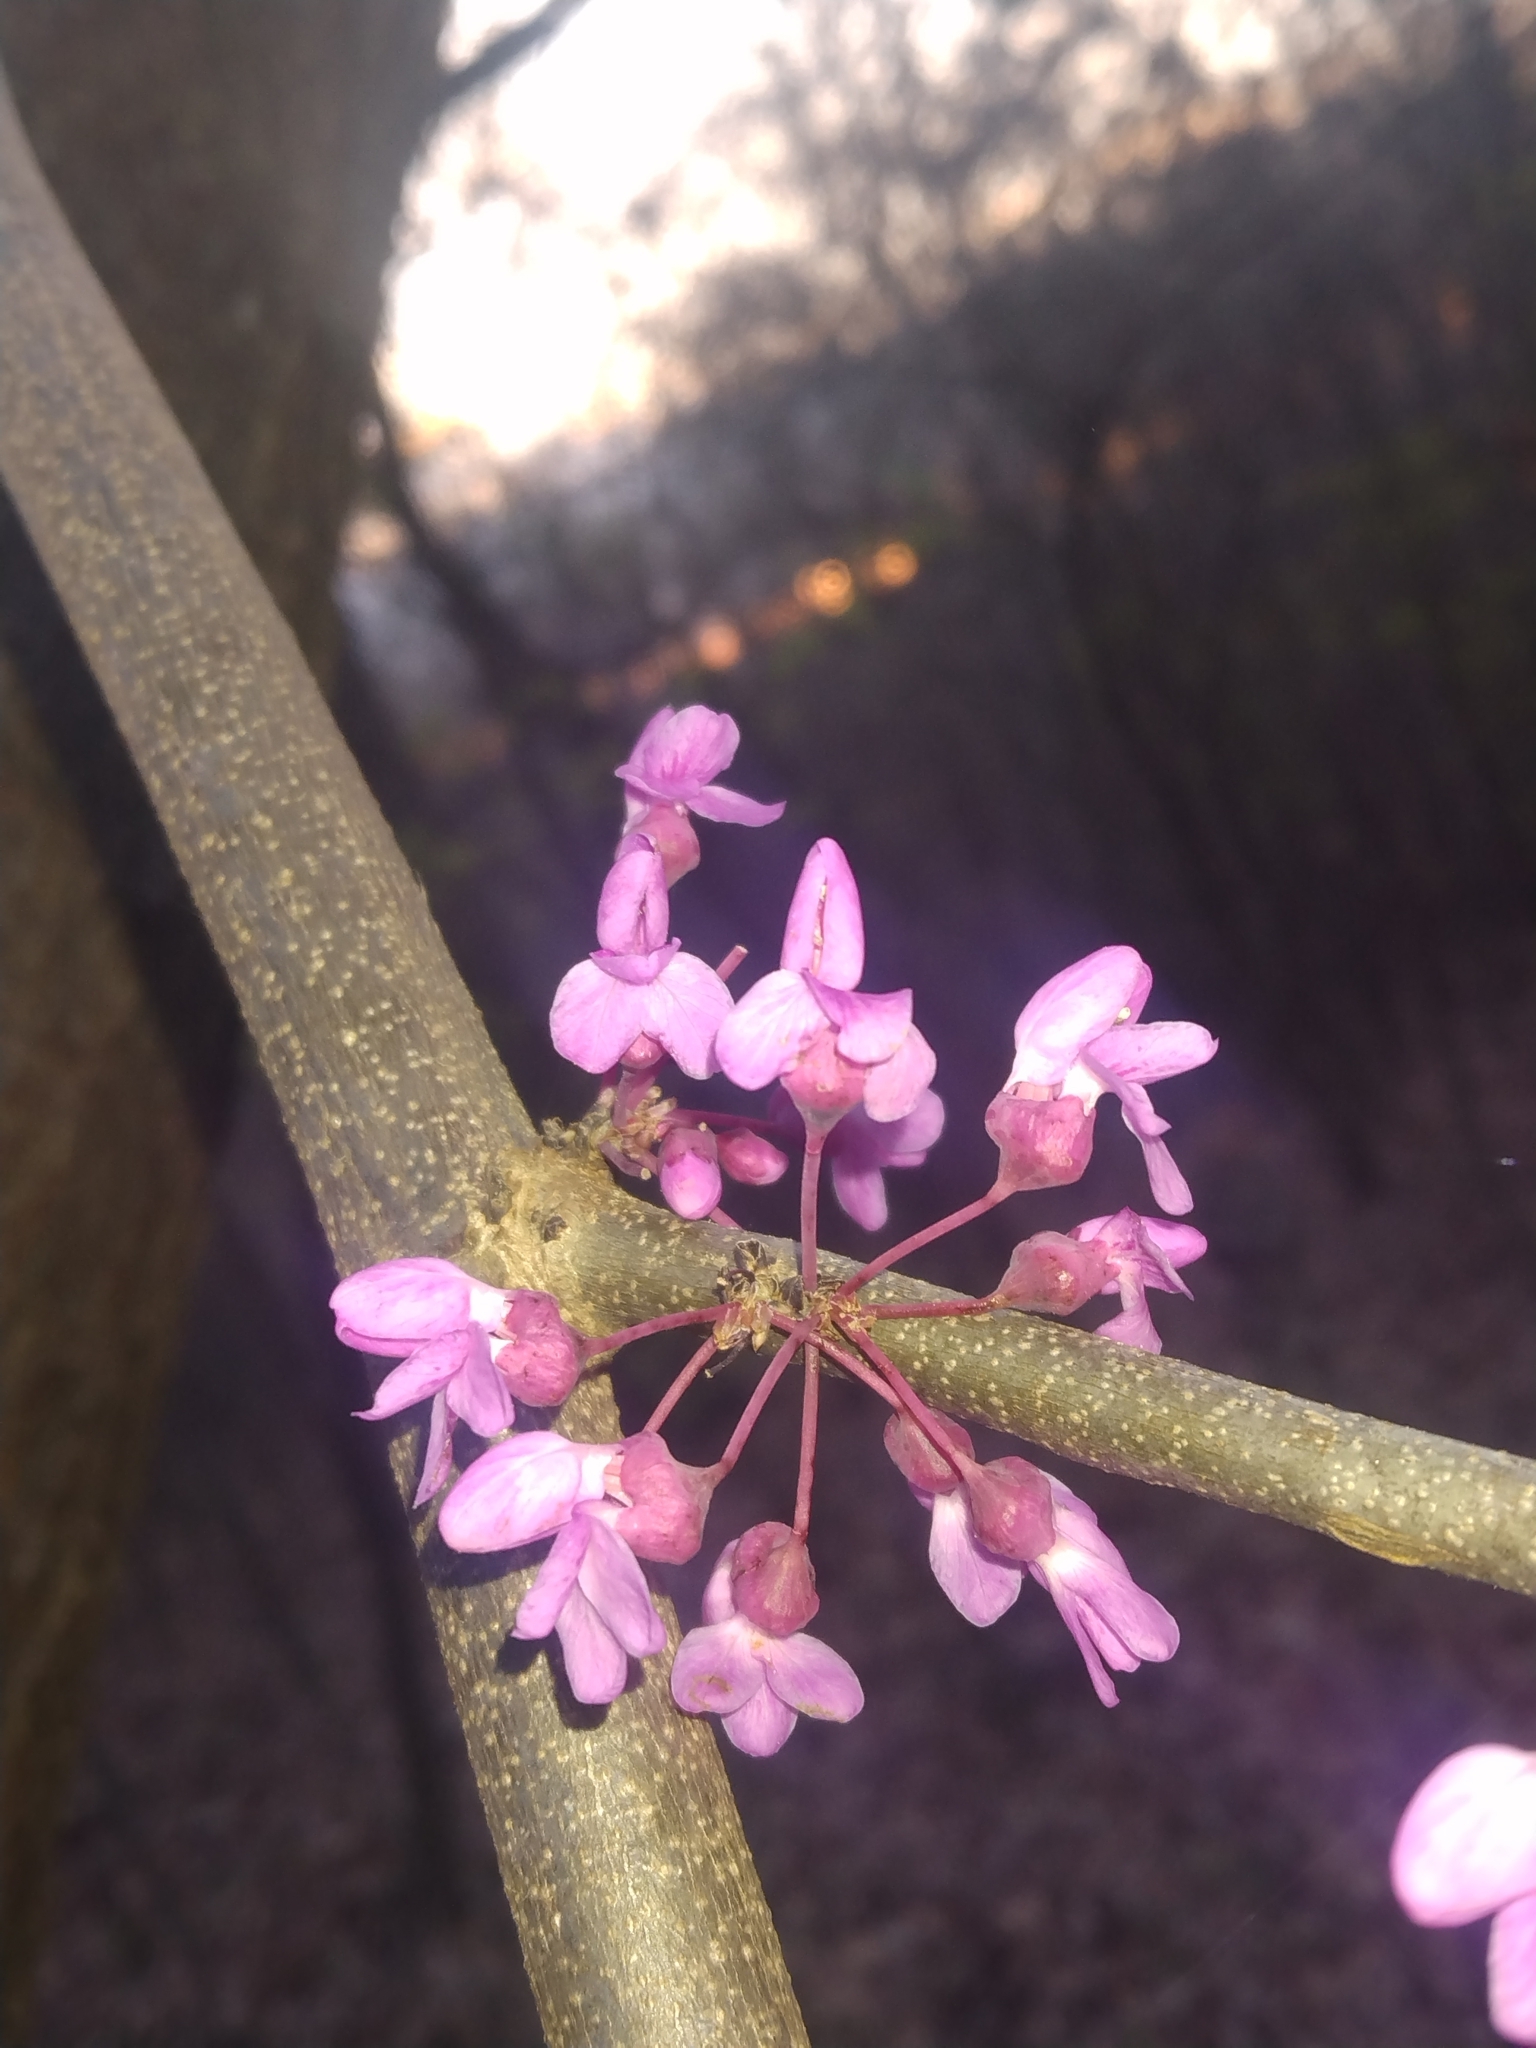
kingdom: Plantae
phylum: Tracheophyta
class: Magnoliopsida
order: Fabales
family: Fabaceae
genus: Cercis
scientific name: Cercis canadensis
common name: Eastern redbud
